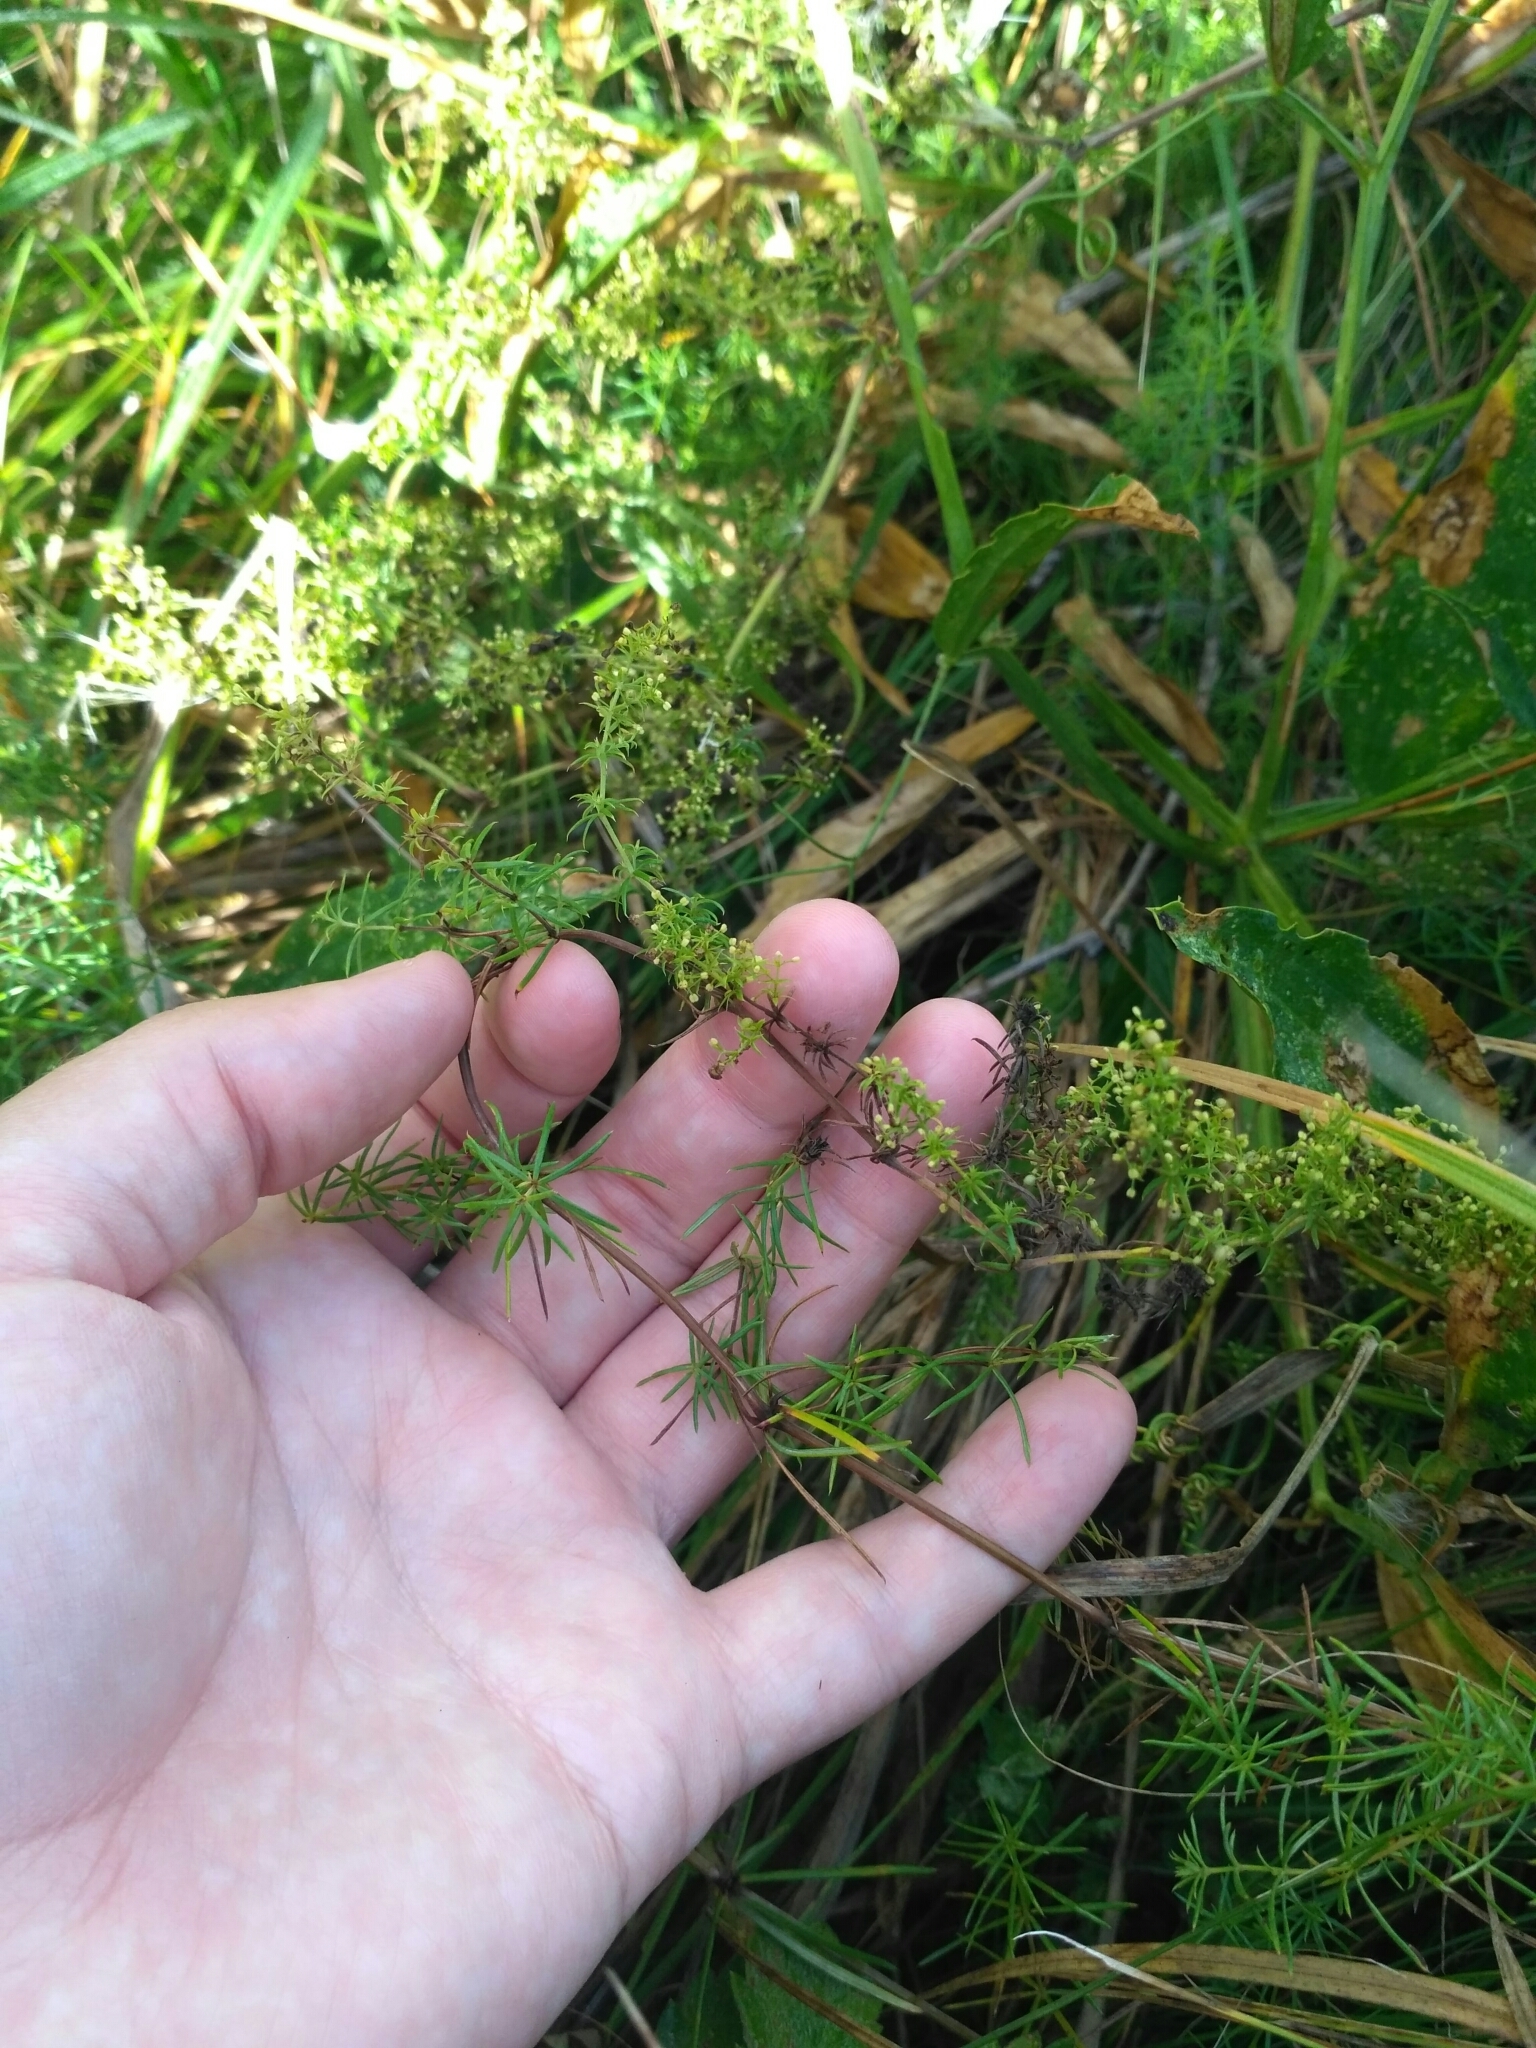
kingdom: Plantae
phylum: Tracheophyta
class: Magnoliopsida
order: Gentianales
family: Rubiaceae
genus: Galium
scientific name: Galium verum
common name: Lady's bedstraw
